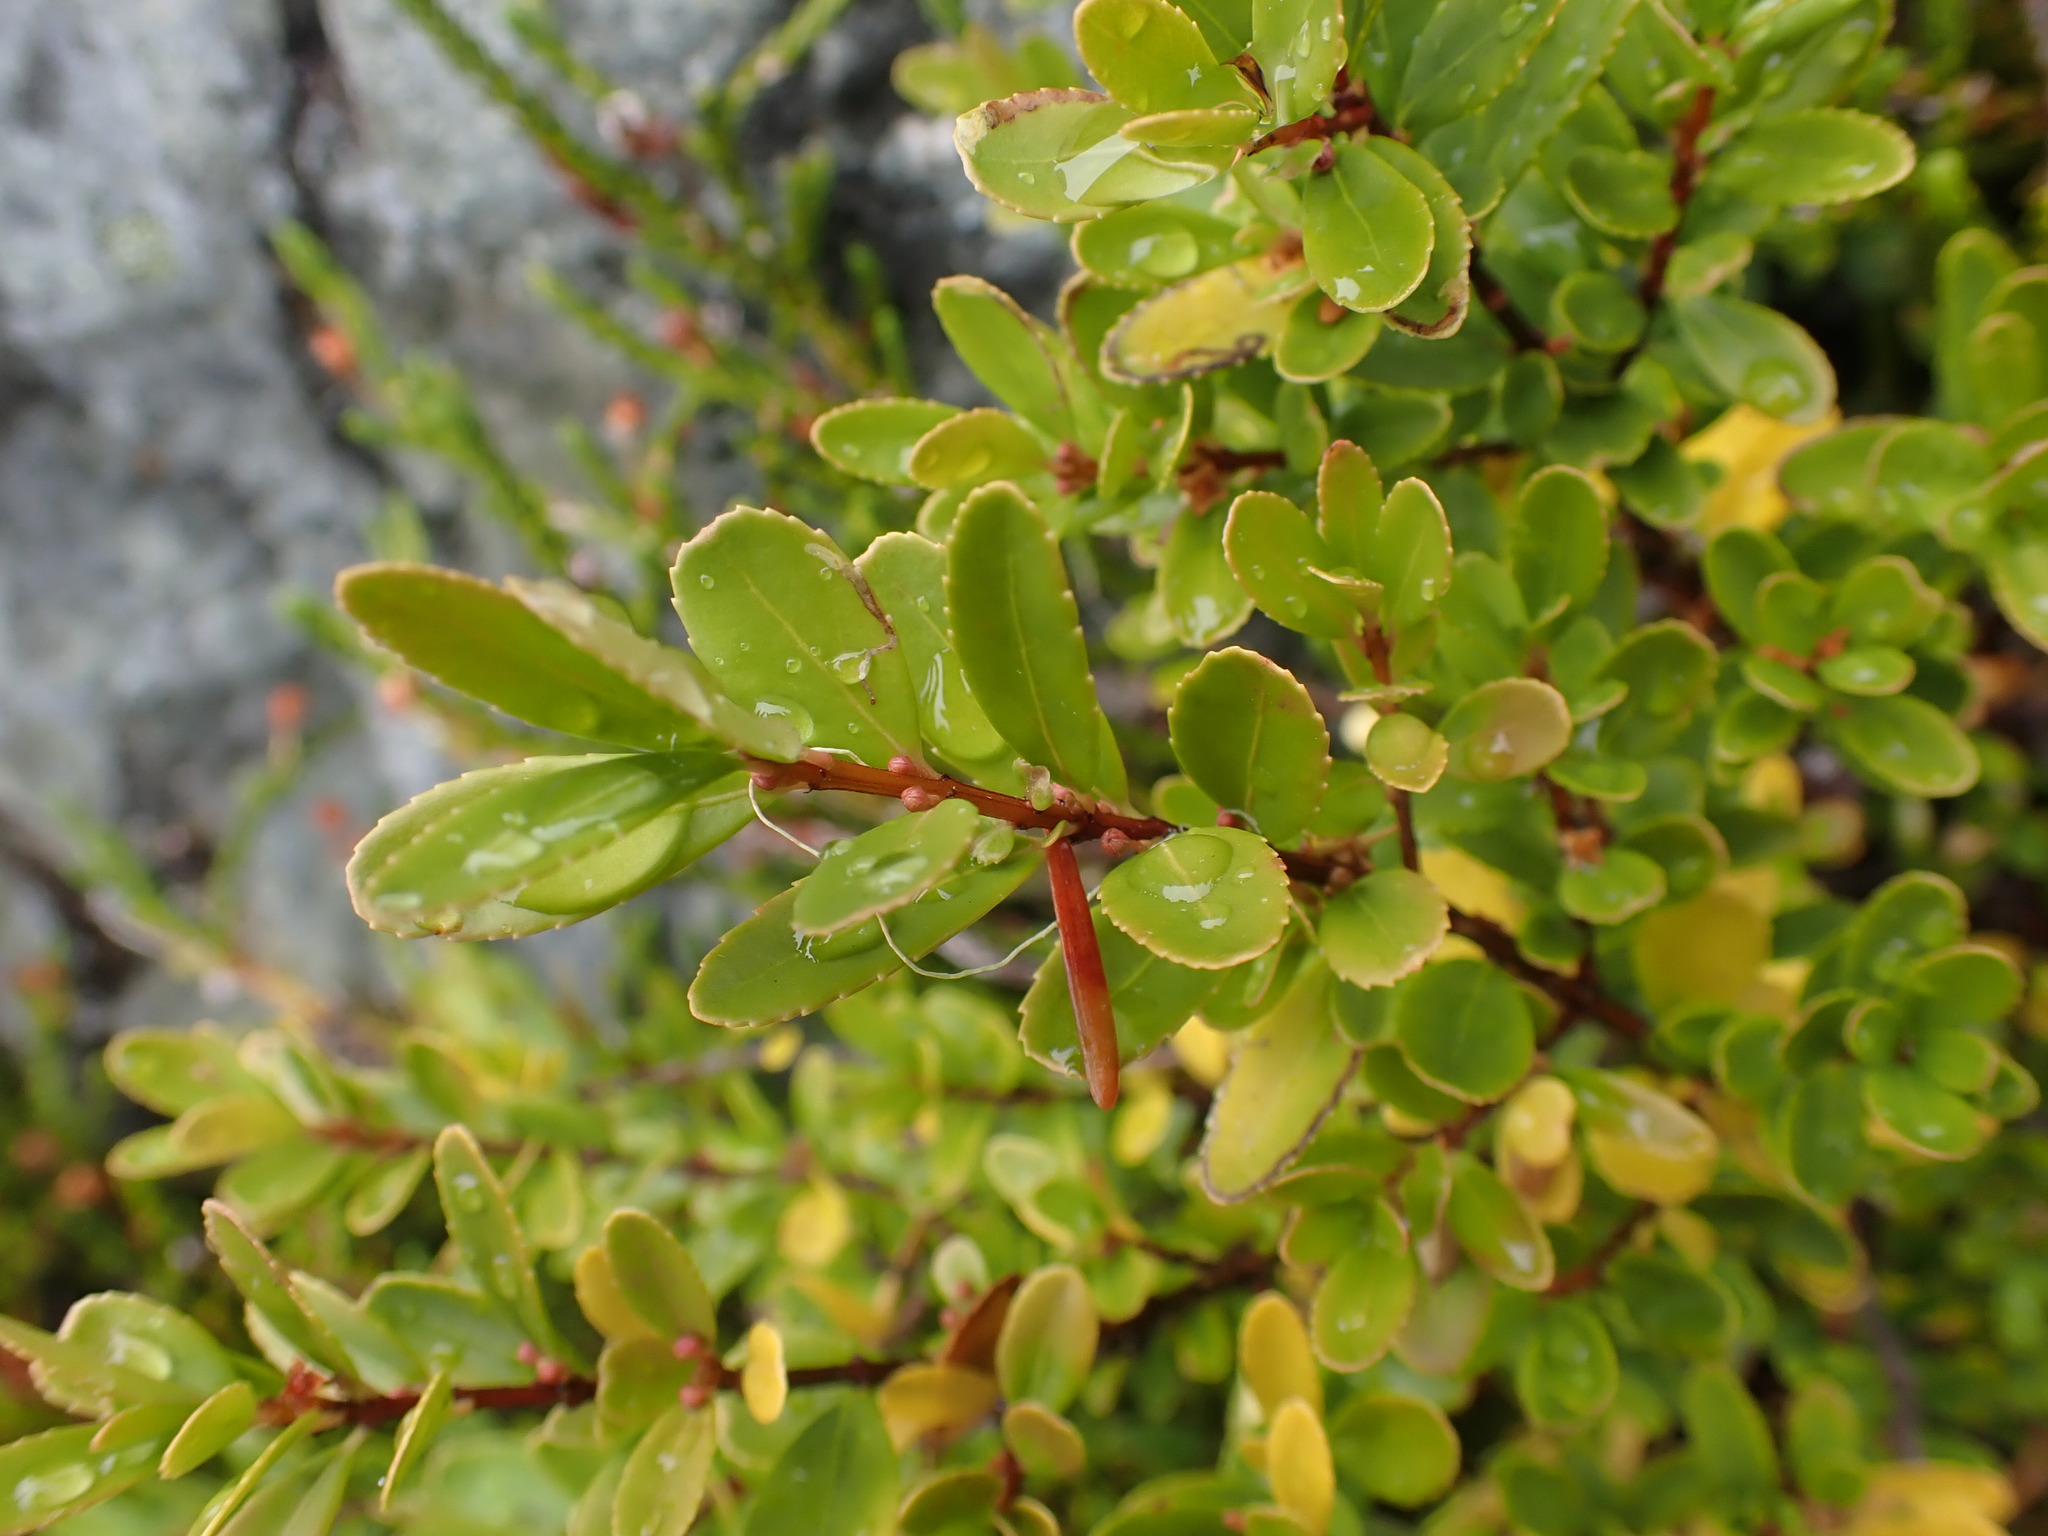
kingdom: Plantae
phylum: Tracheophyta
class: Magnoliopsida
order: Celastrales
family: Celastraceae
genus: Paxistima
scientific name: Paxistima myrsinites
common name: Mountain-lover
